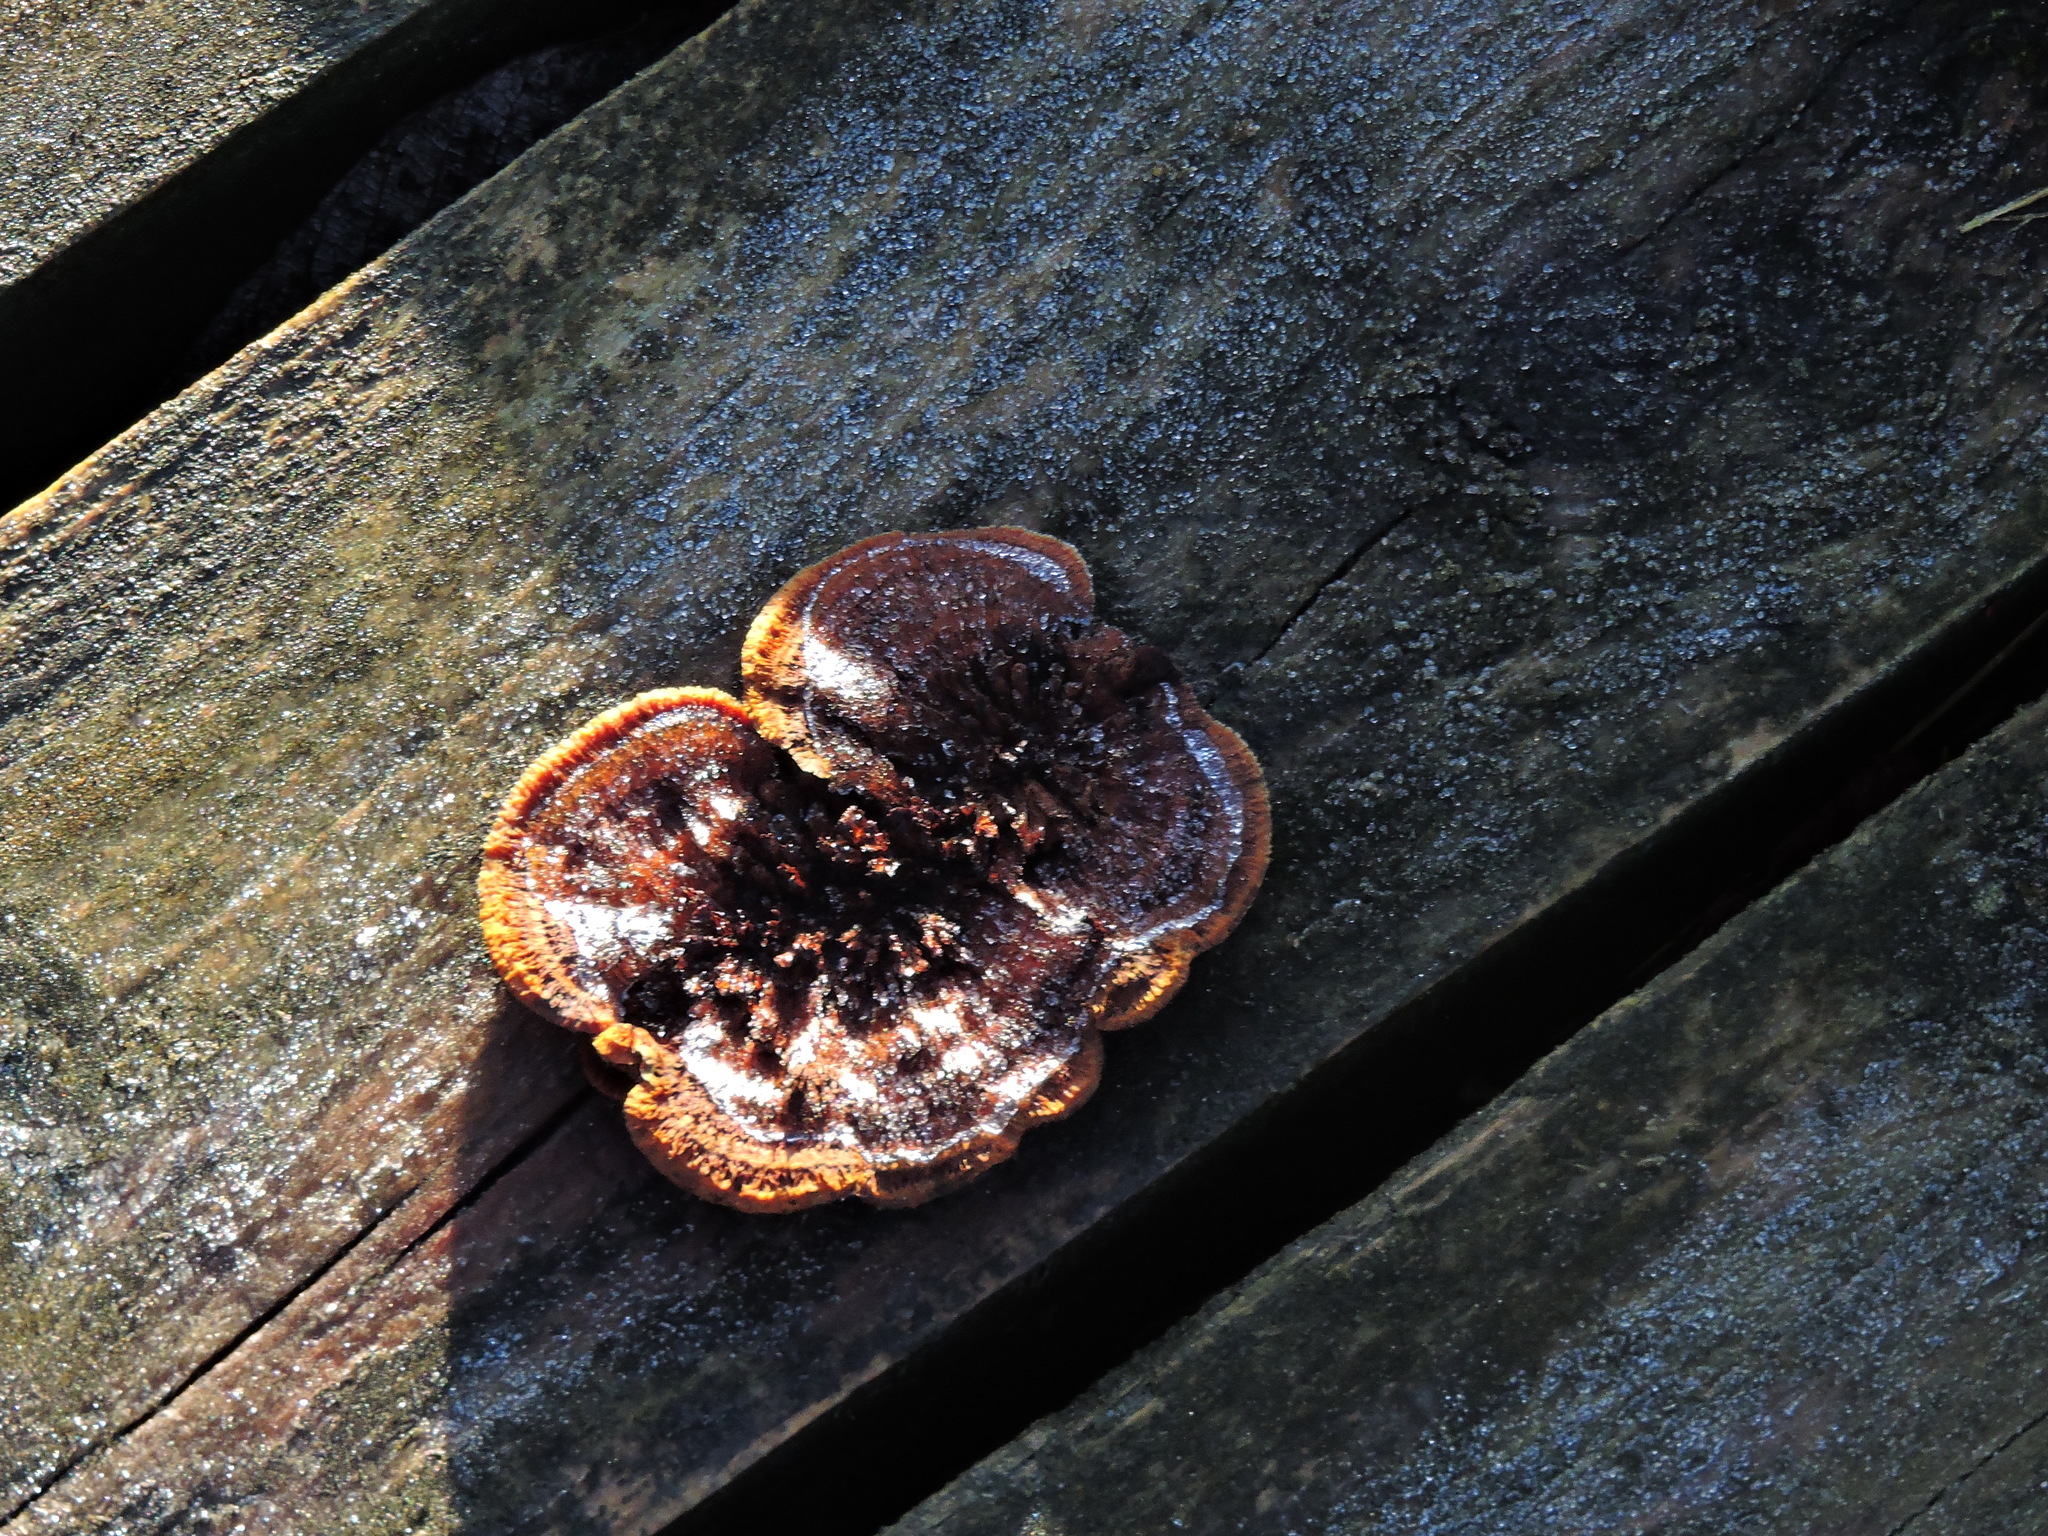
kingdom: Fungi
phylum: Basidiomycota
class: Agaricomycetes
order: Gloeophyllales
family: Gloeophyllaceae
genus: Gloeophyllum
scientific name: Gloeophyllum sepiarium
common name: Conifer mazegill
